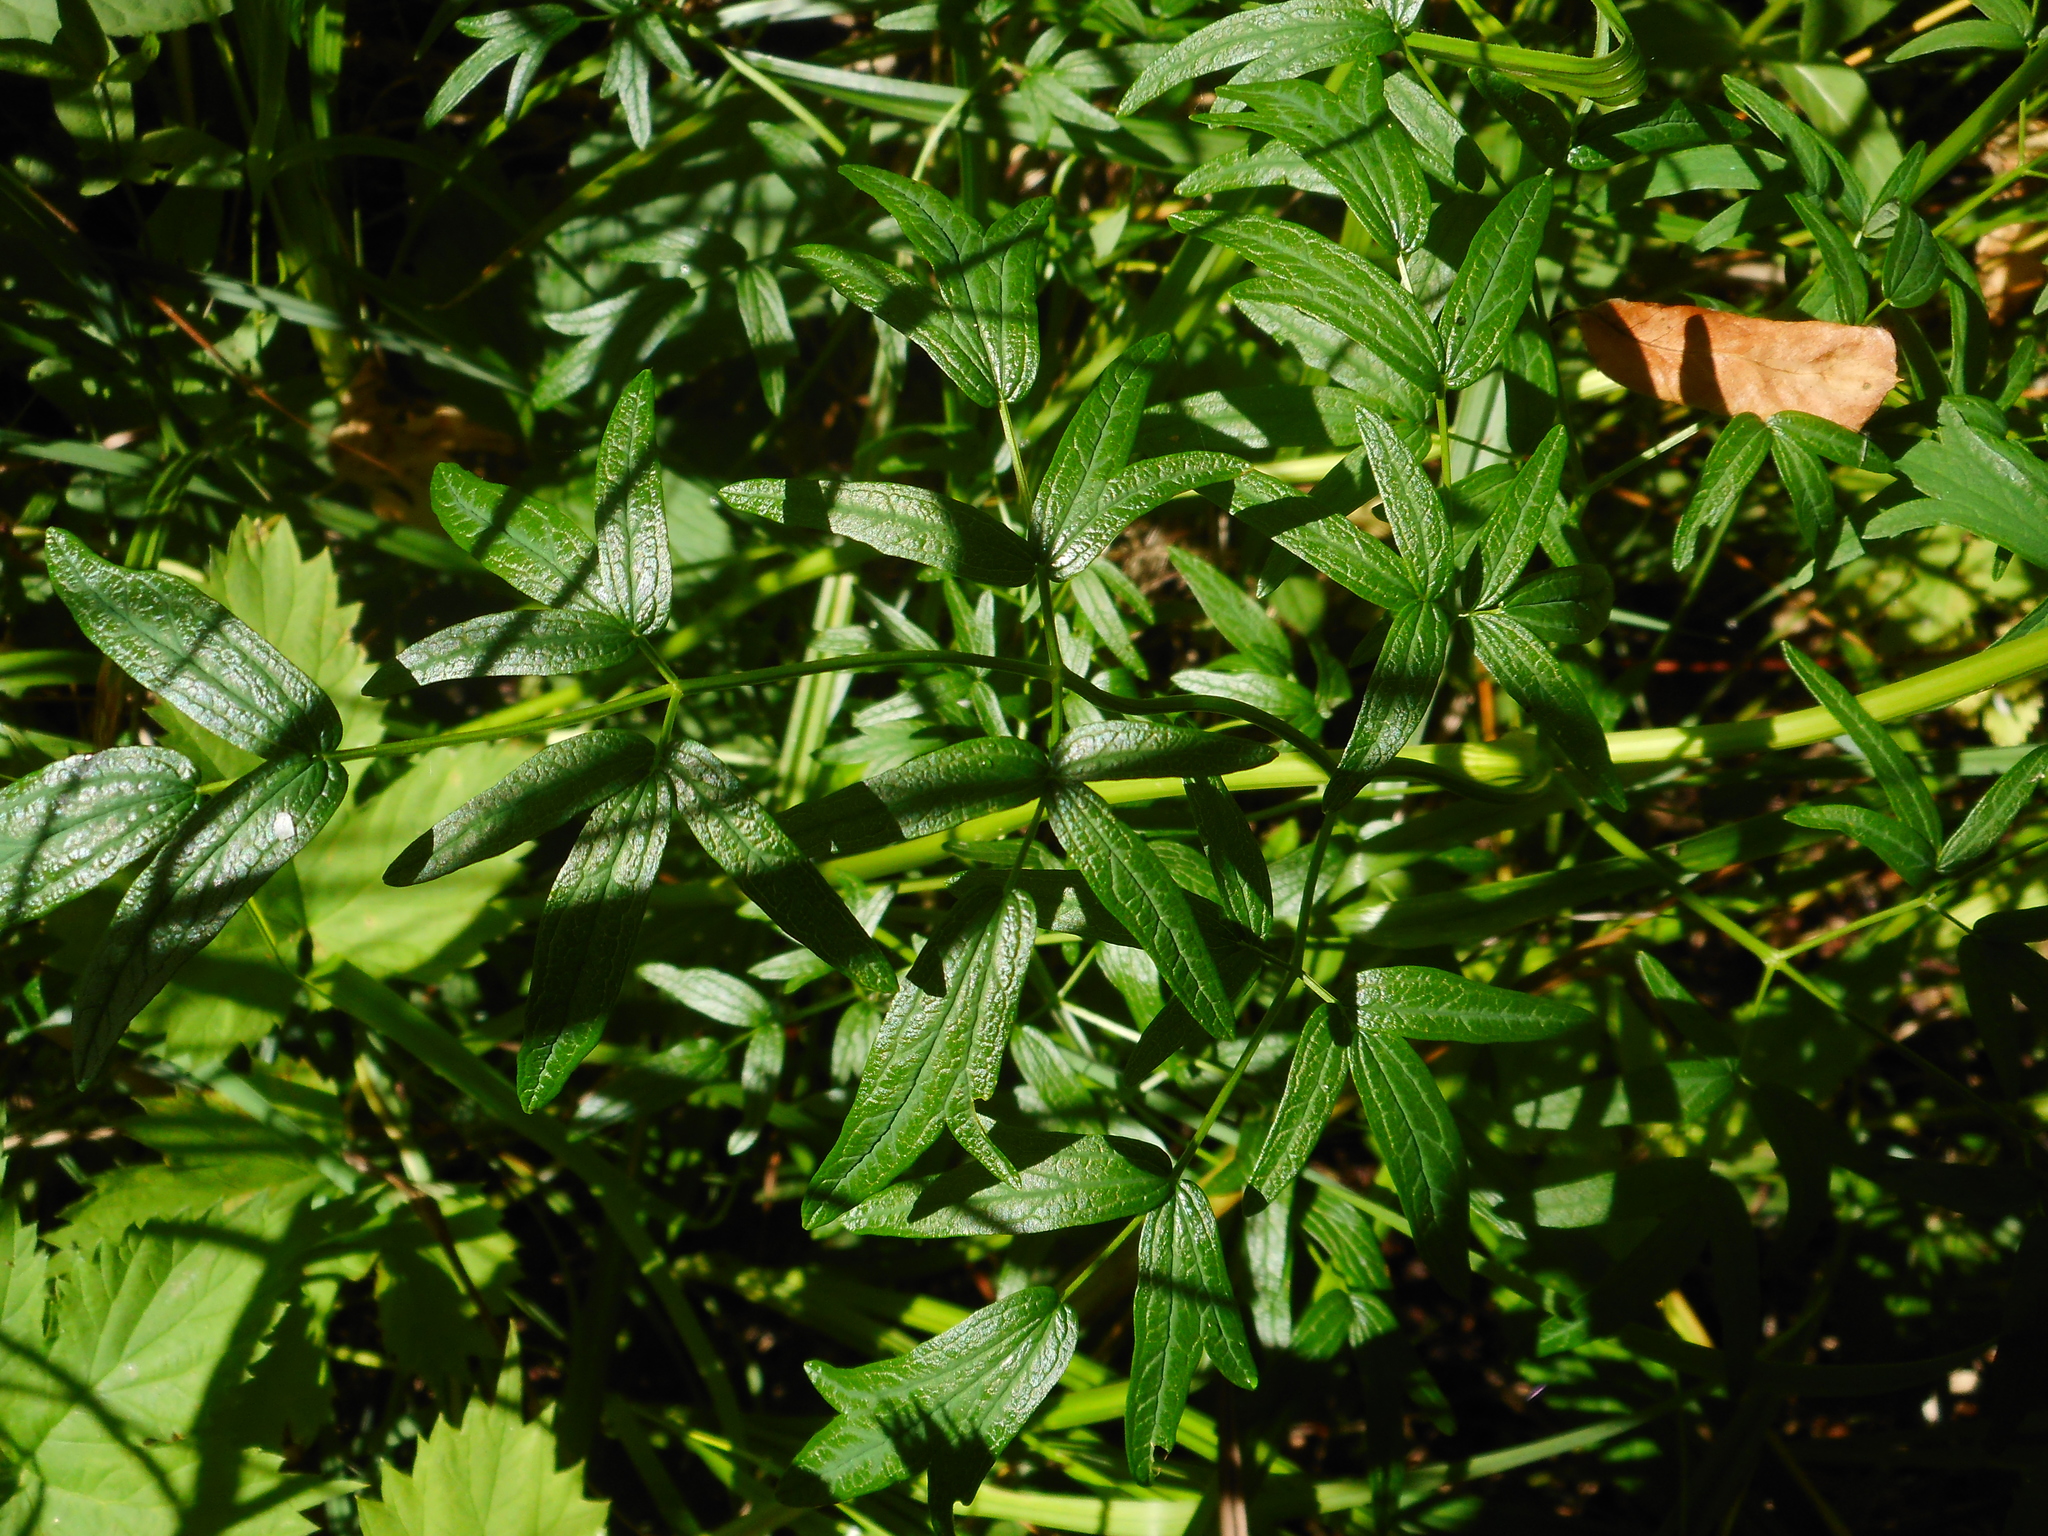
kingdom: Plantae
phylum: Tracheophyta
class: Magnoliopsida
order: Ranunculales
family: Ranunculaceae
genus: Thalictrum
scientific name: Thalictrum lucidum
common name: Shining meadow-rue
